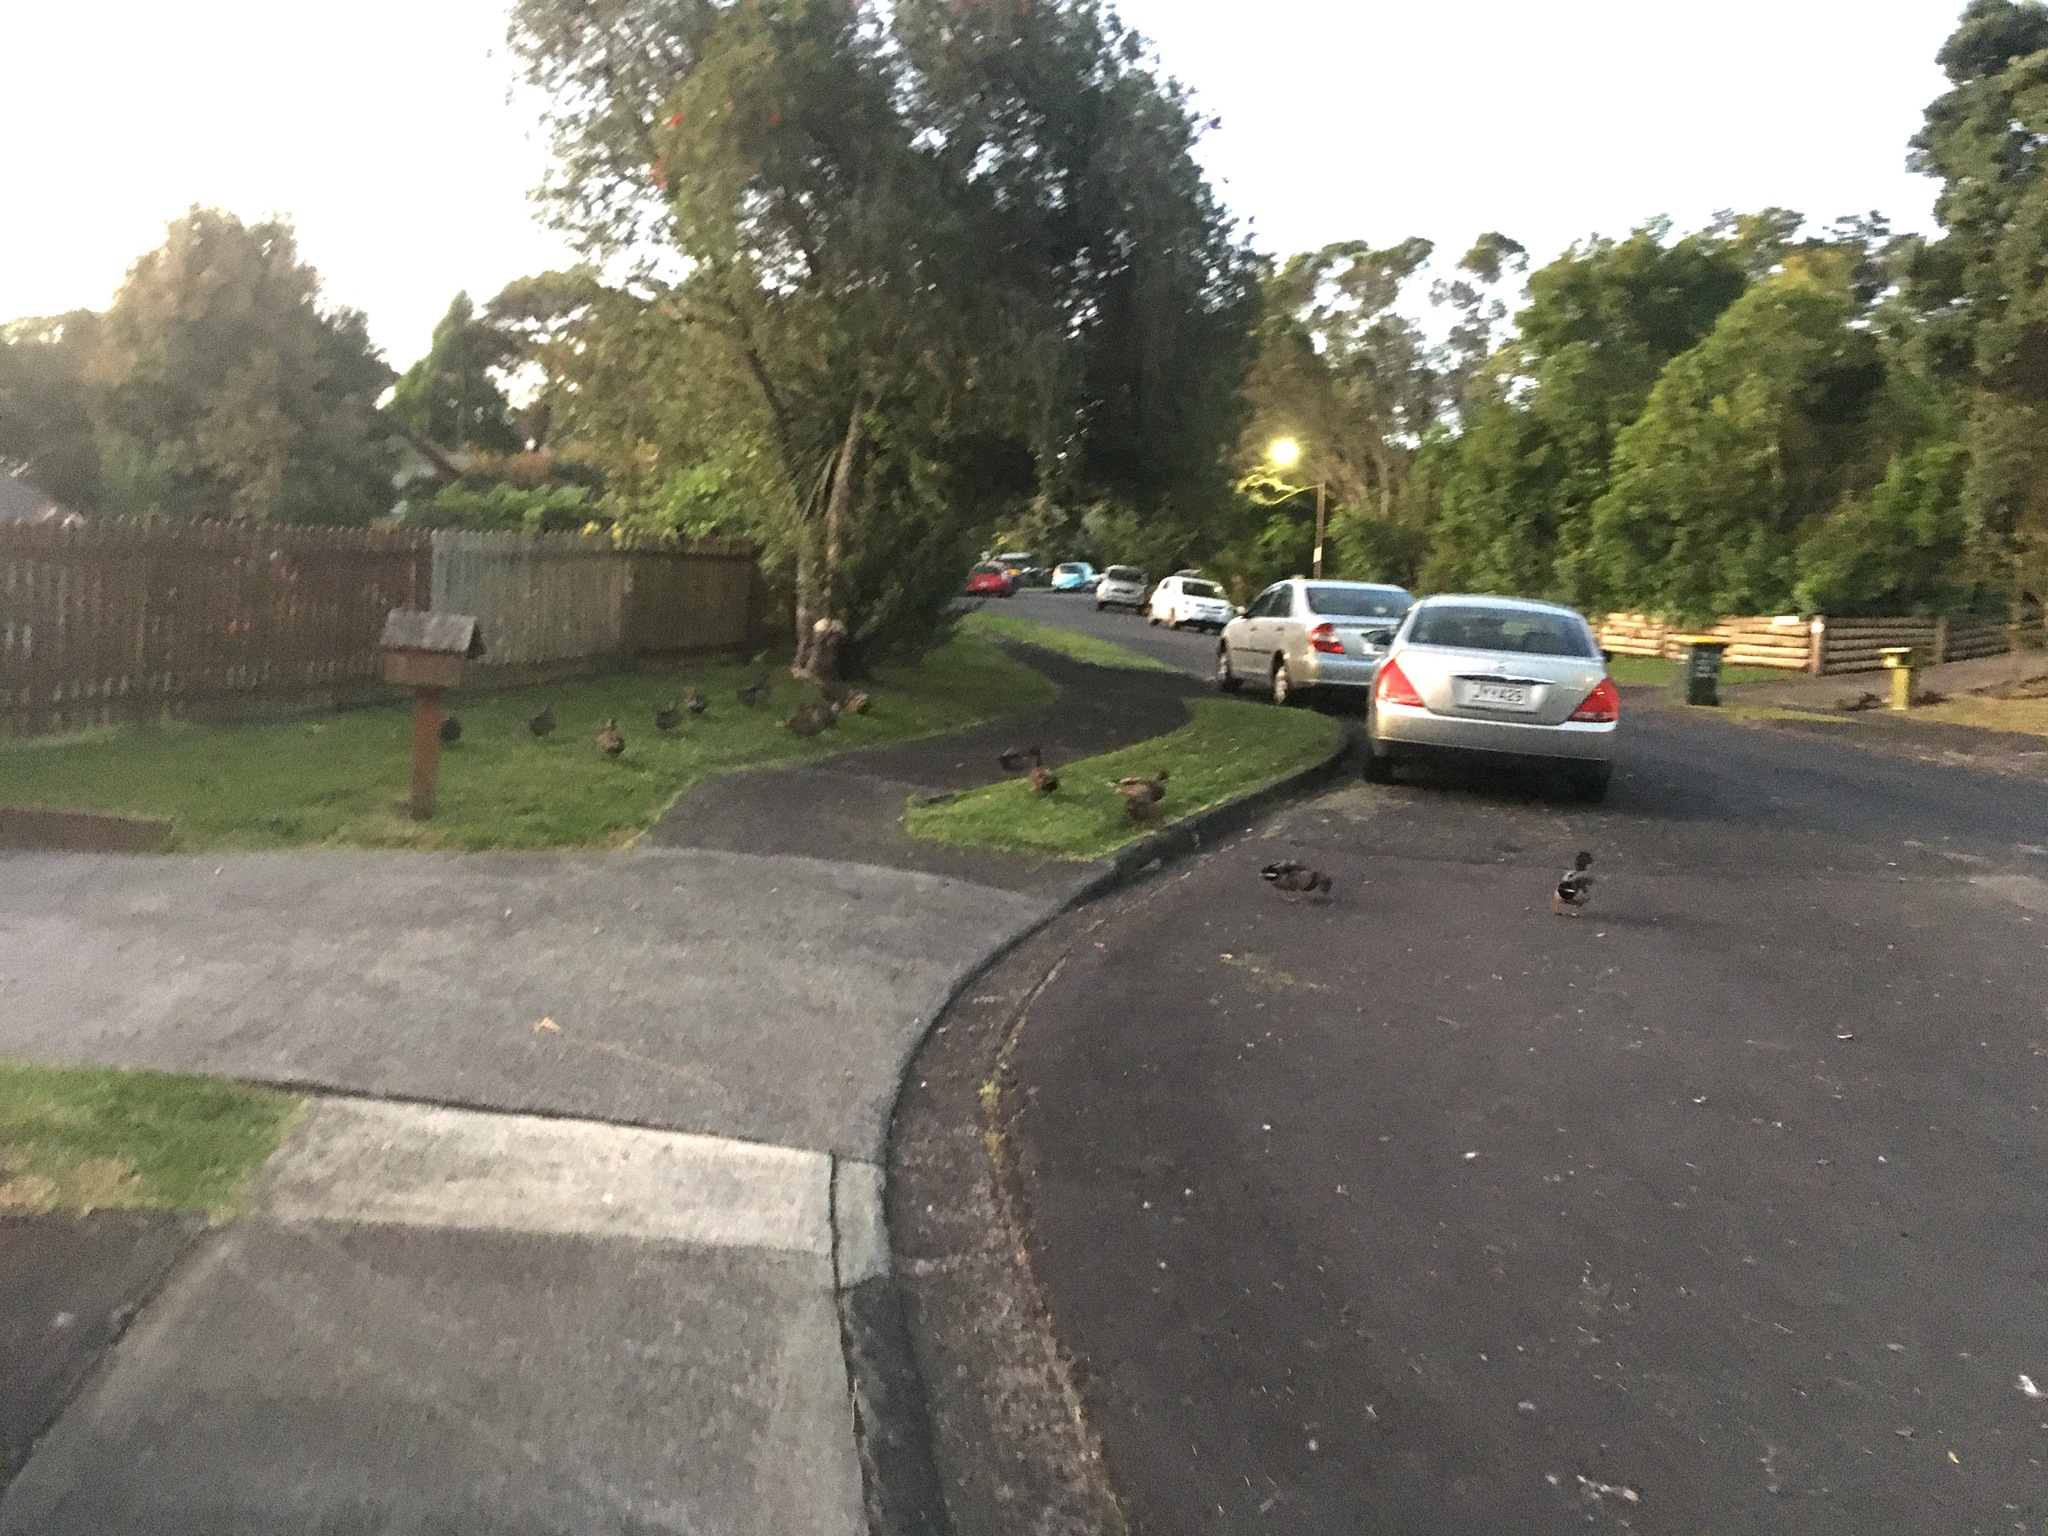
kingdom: Animalia
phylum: Chordata
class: Aves
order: Anseriformes
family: Anatidae
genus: Anas
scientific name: Anas platyrhynchos
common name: Mallard
